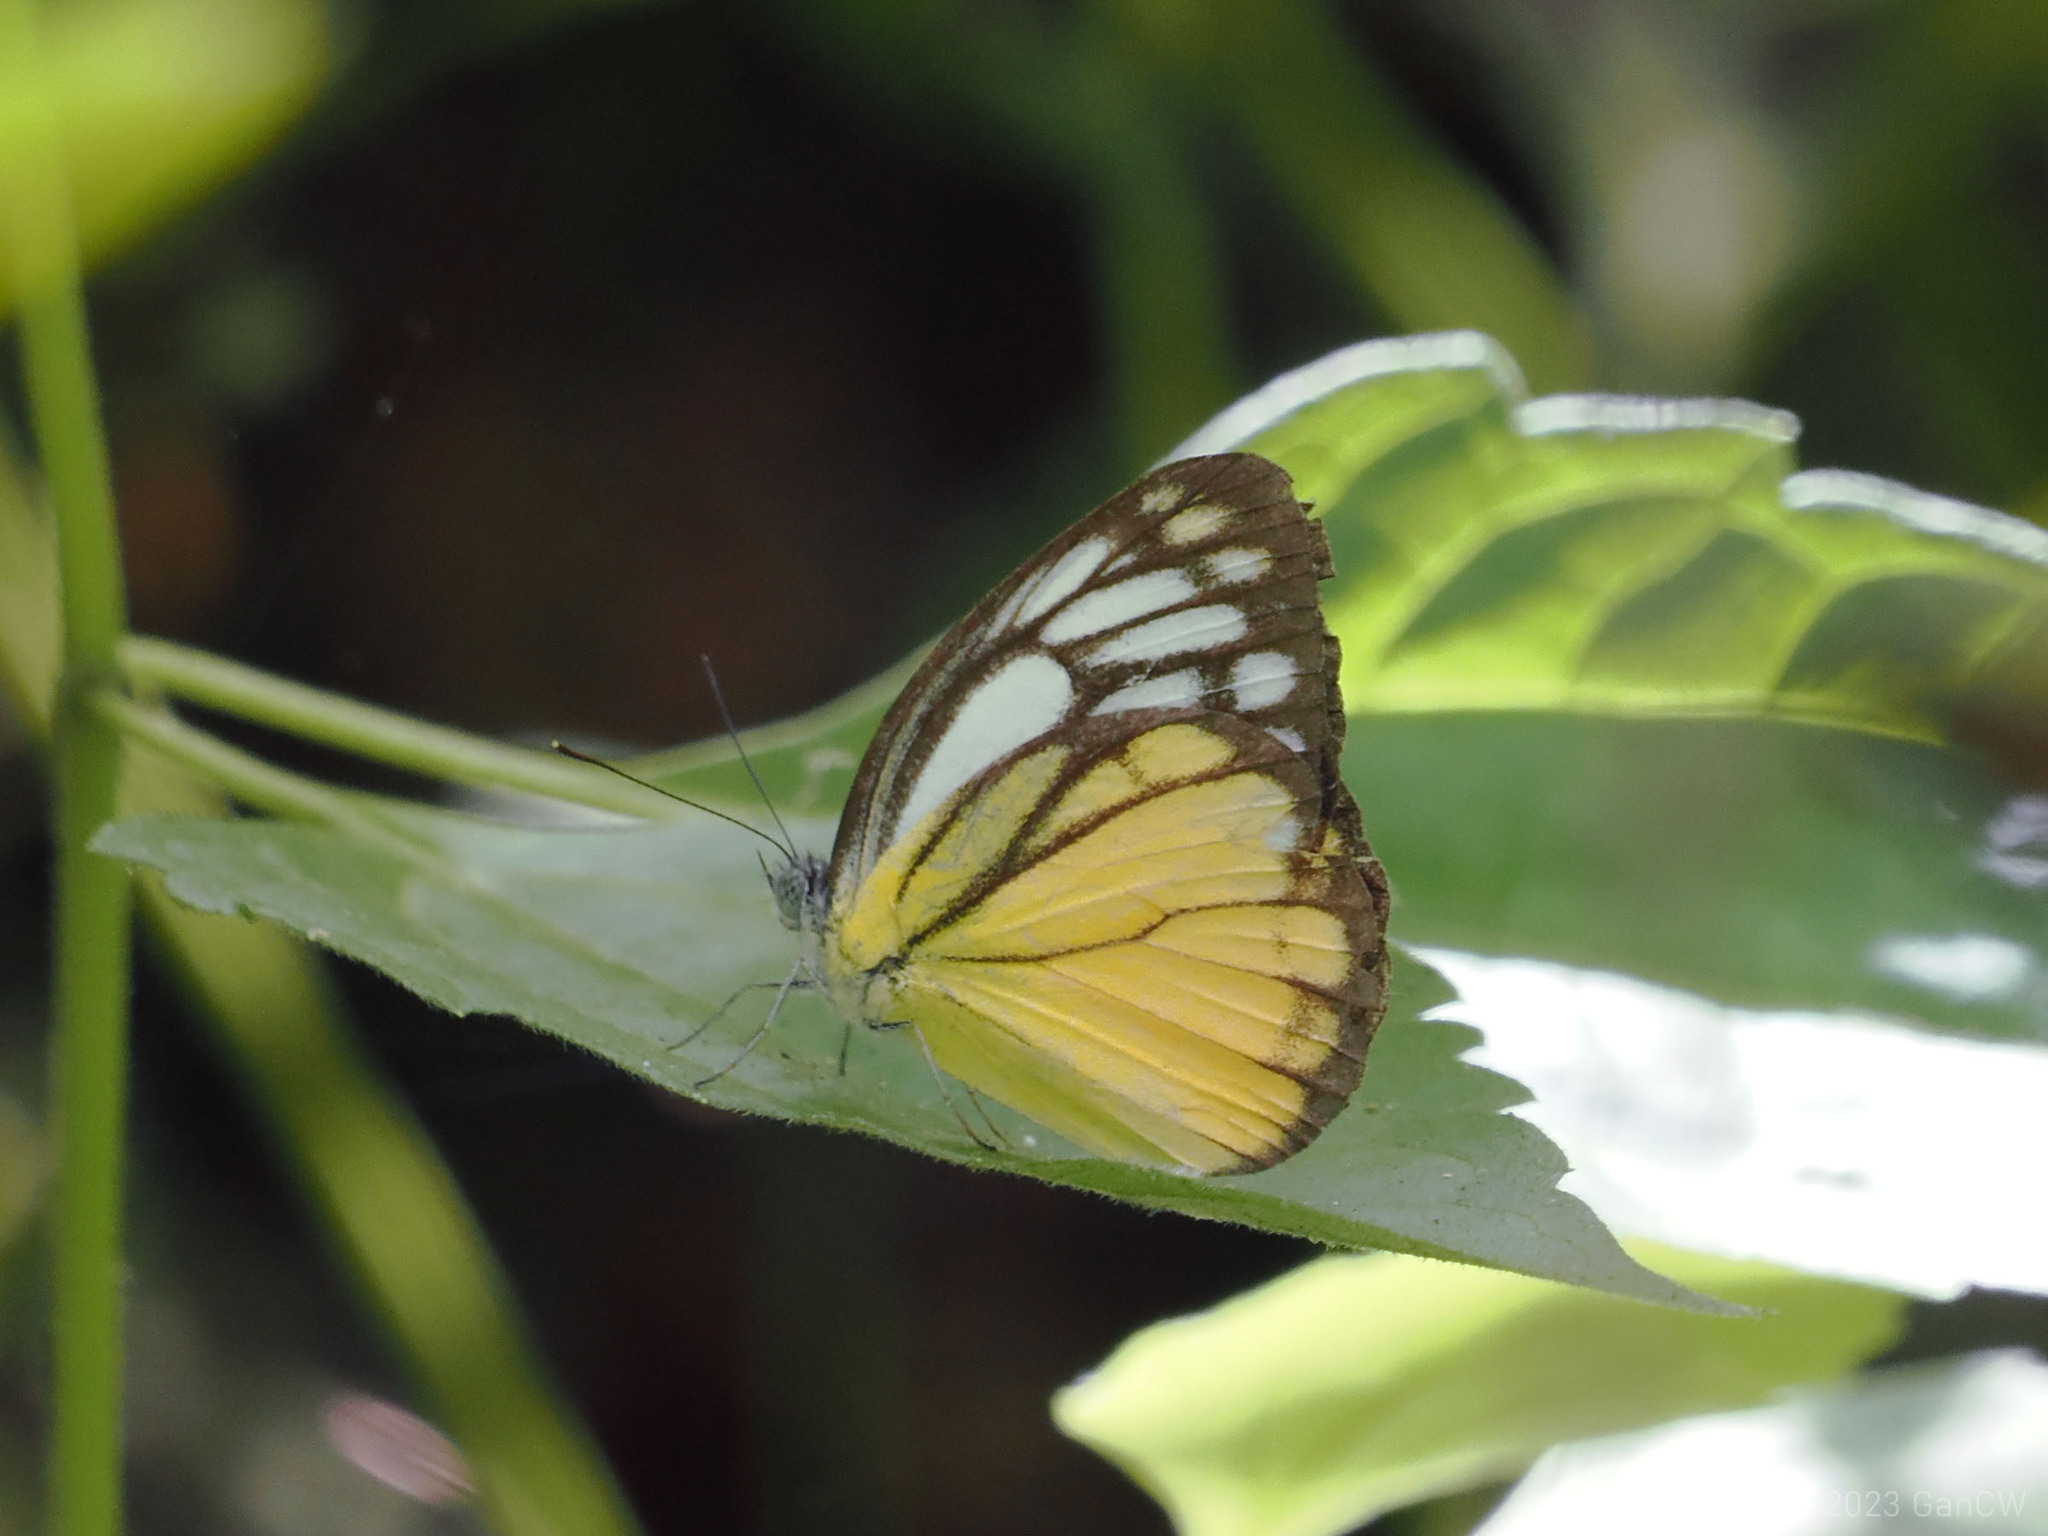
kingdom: Animalia
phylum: Arthropoda
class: Insecta
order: Lepidoptera
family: Pieridae
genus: Cepora
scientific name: Cepora aspasia
